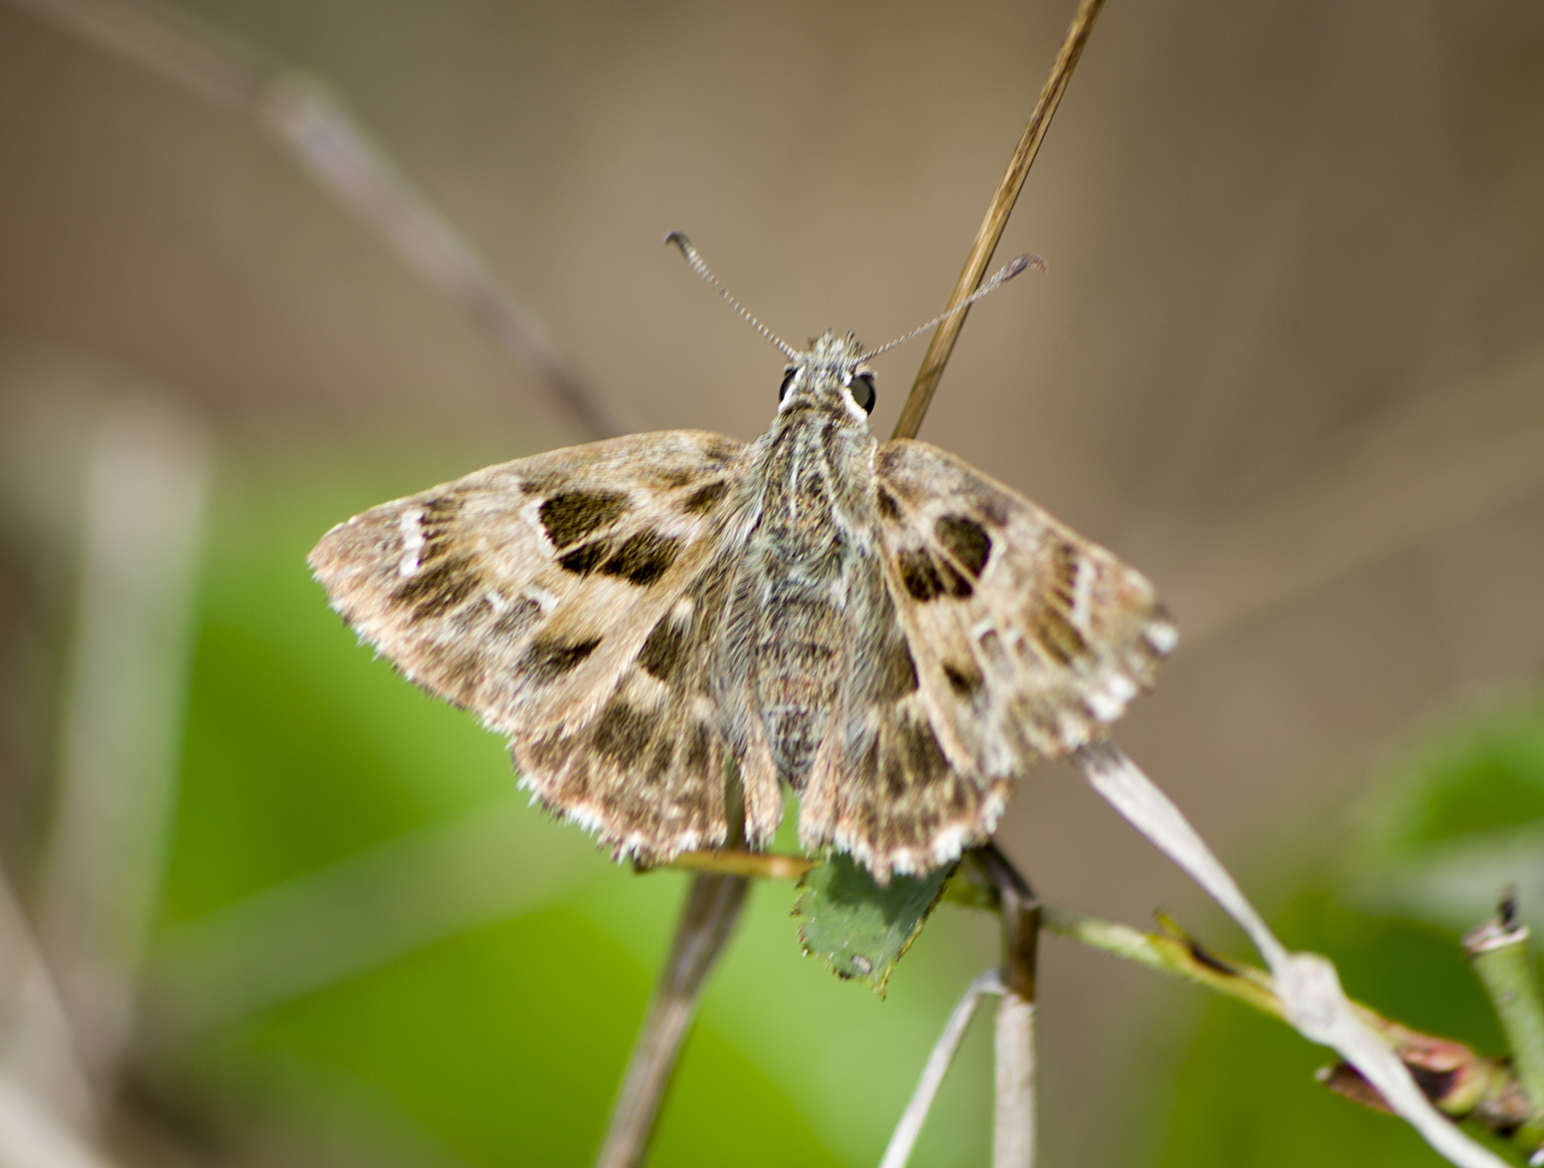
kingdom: Animalia
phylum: Arthropoda
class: Insecta
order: Lepidoptera
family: Hesperiidae
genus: Carcharodus
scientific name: Carcharodus alceae
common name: Mallow skipper
